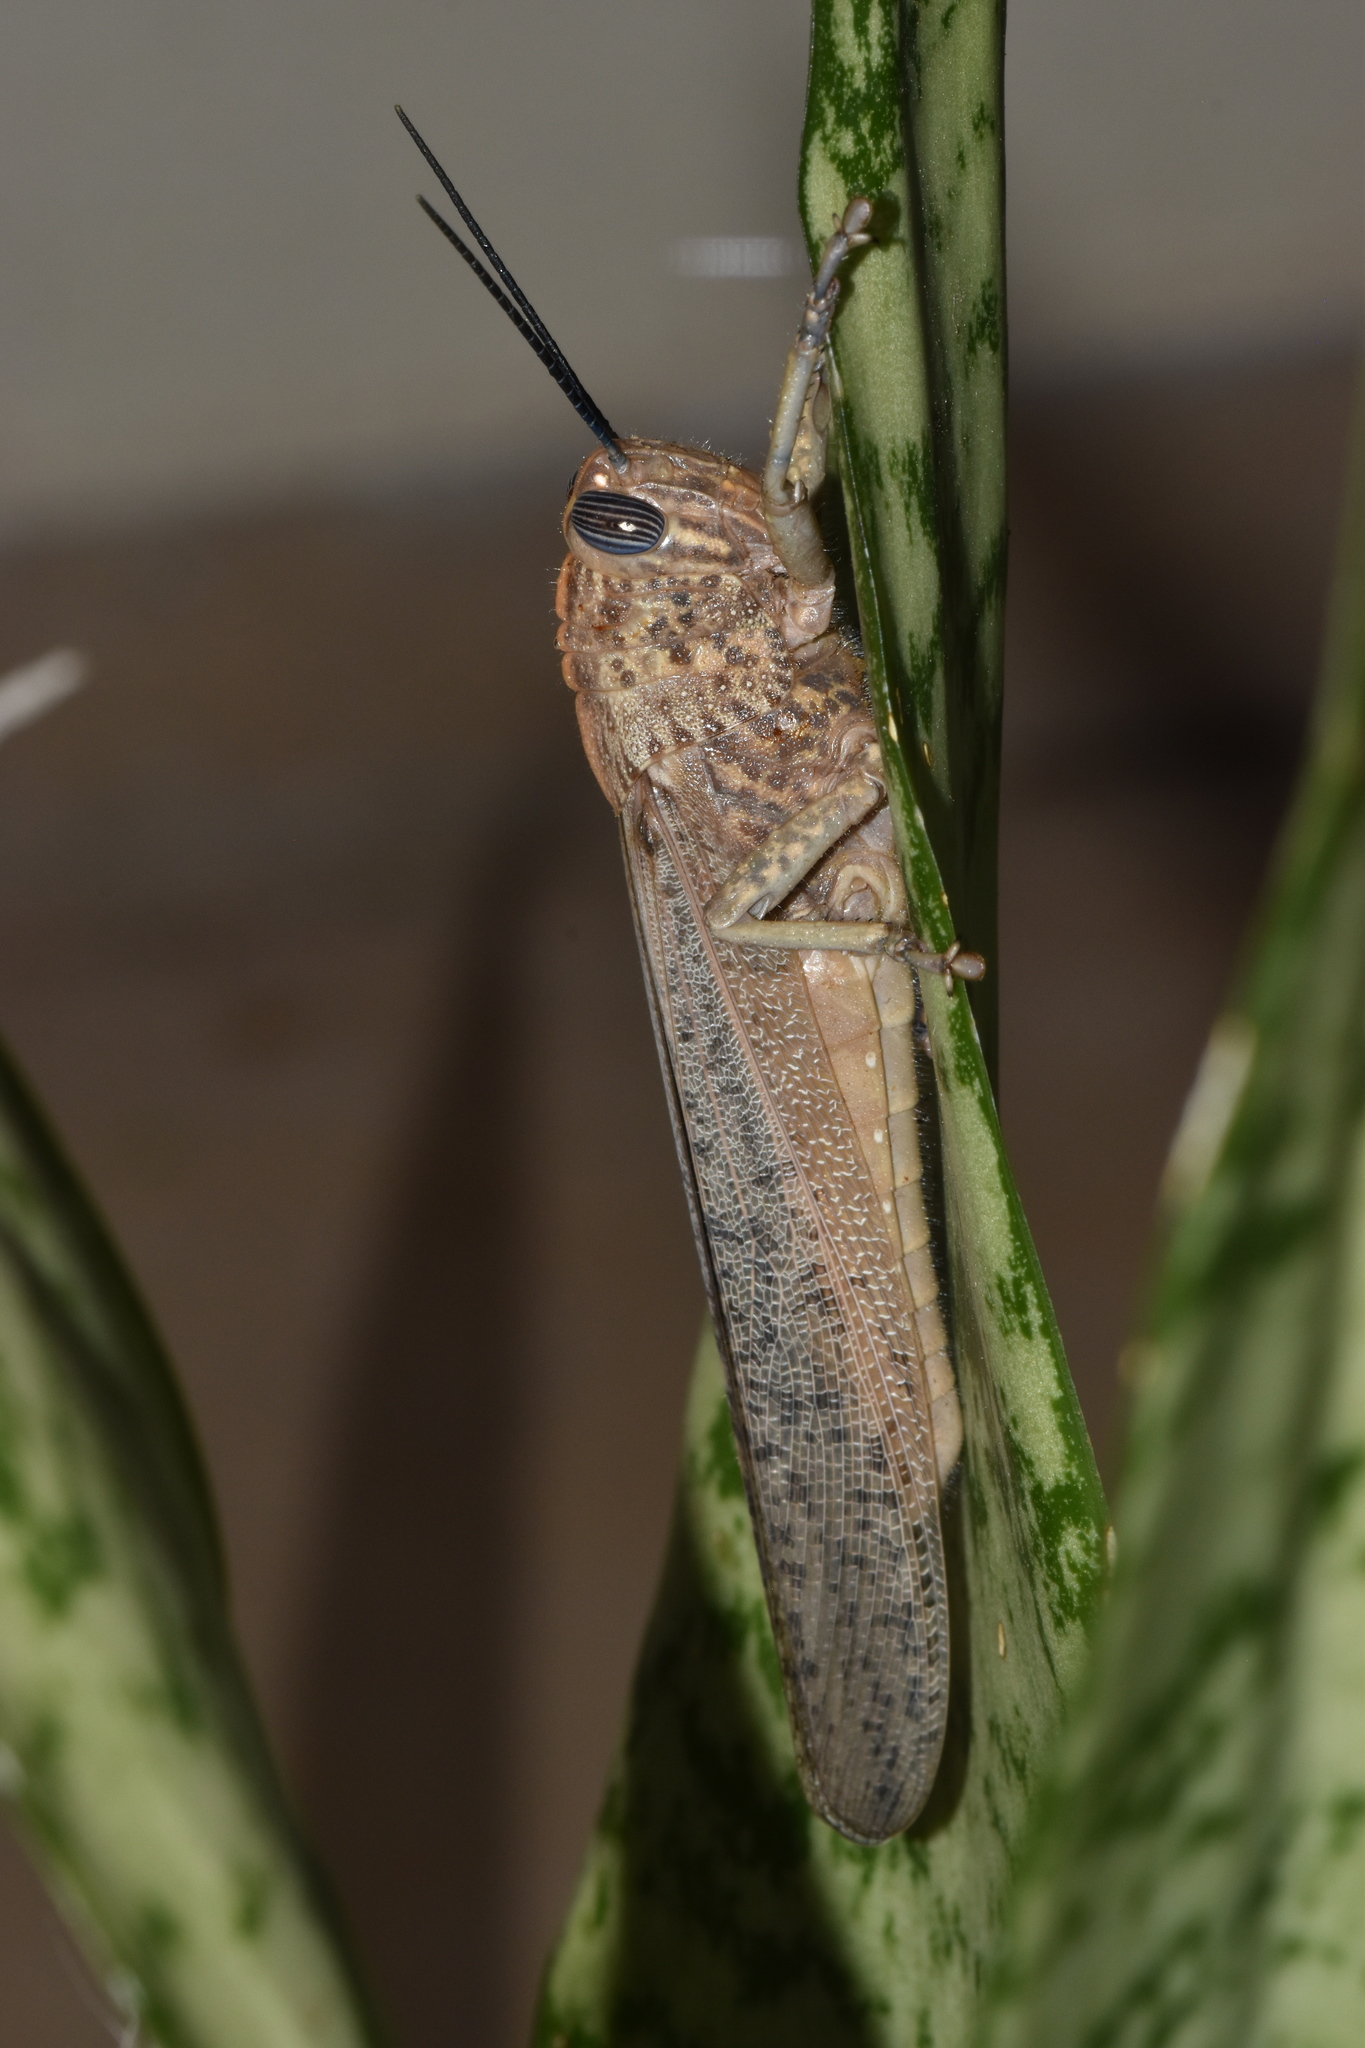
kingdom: Animalia
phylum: Arthropoda
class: Insecta
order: Orthoptera
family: Acrididae
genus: Anacridium
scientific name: Anacridium aegyptium
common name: Egyptian grasshopper
